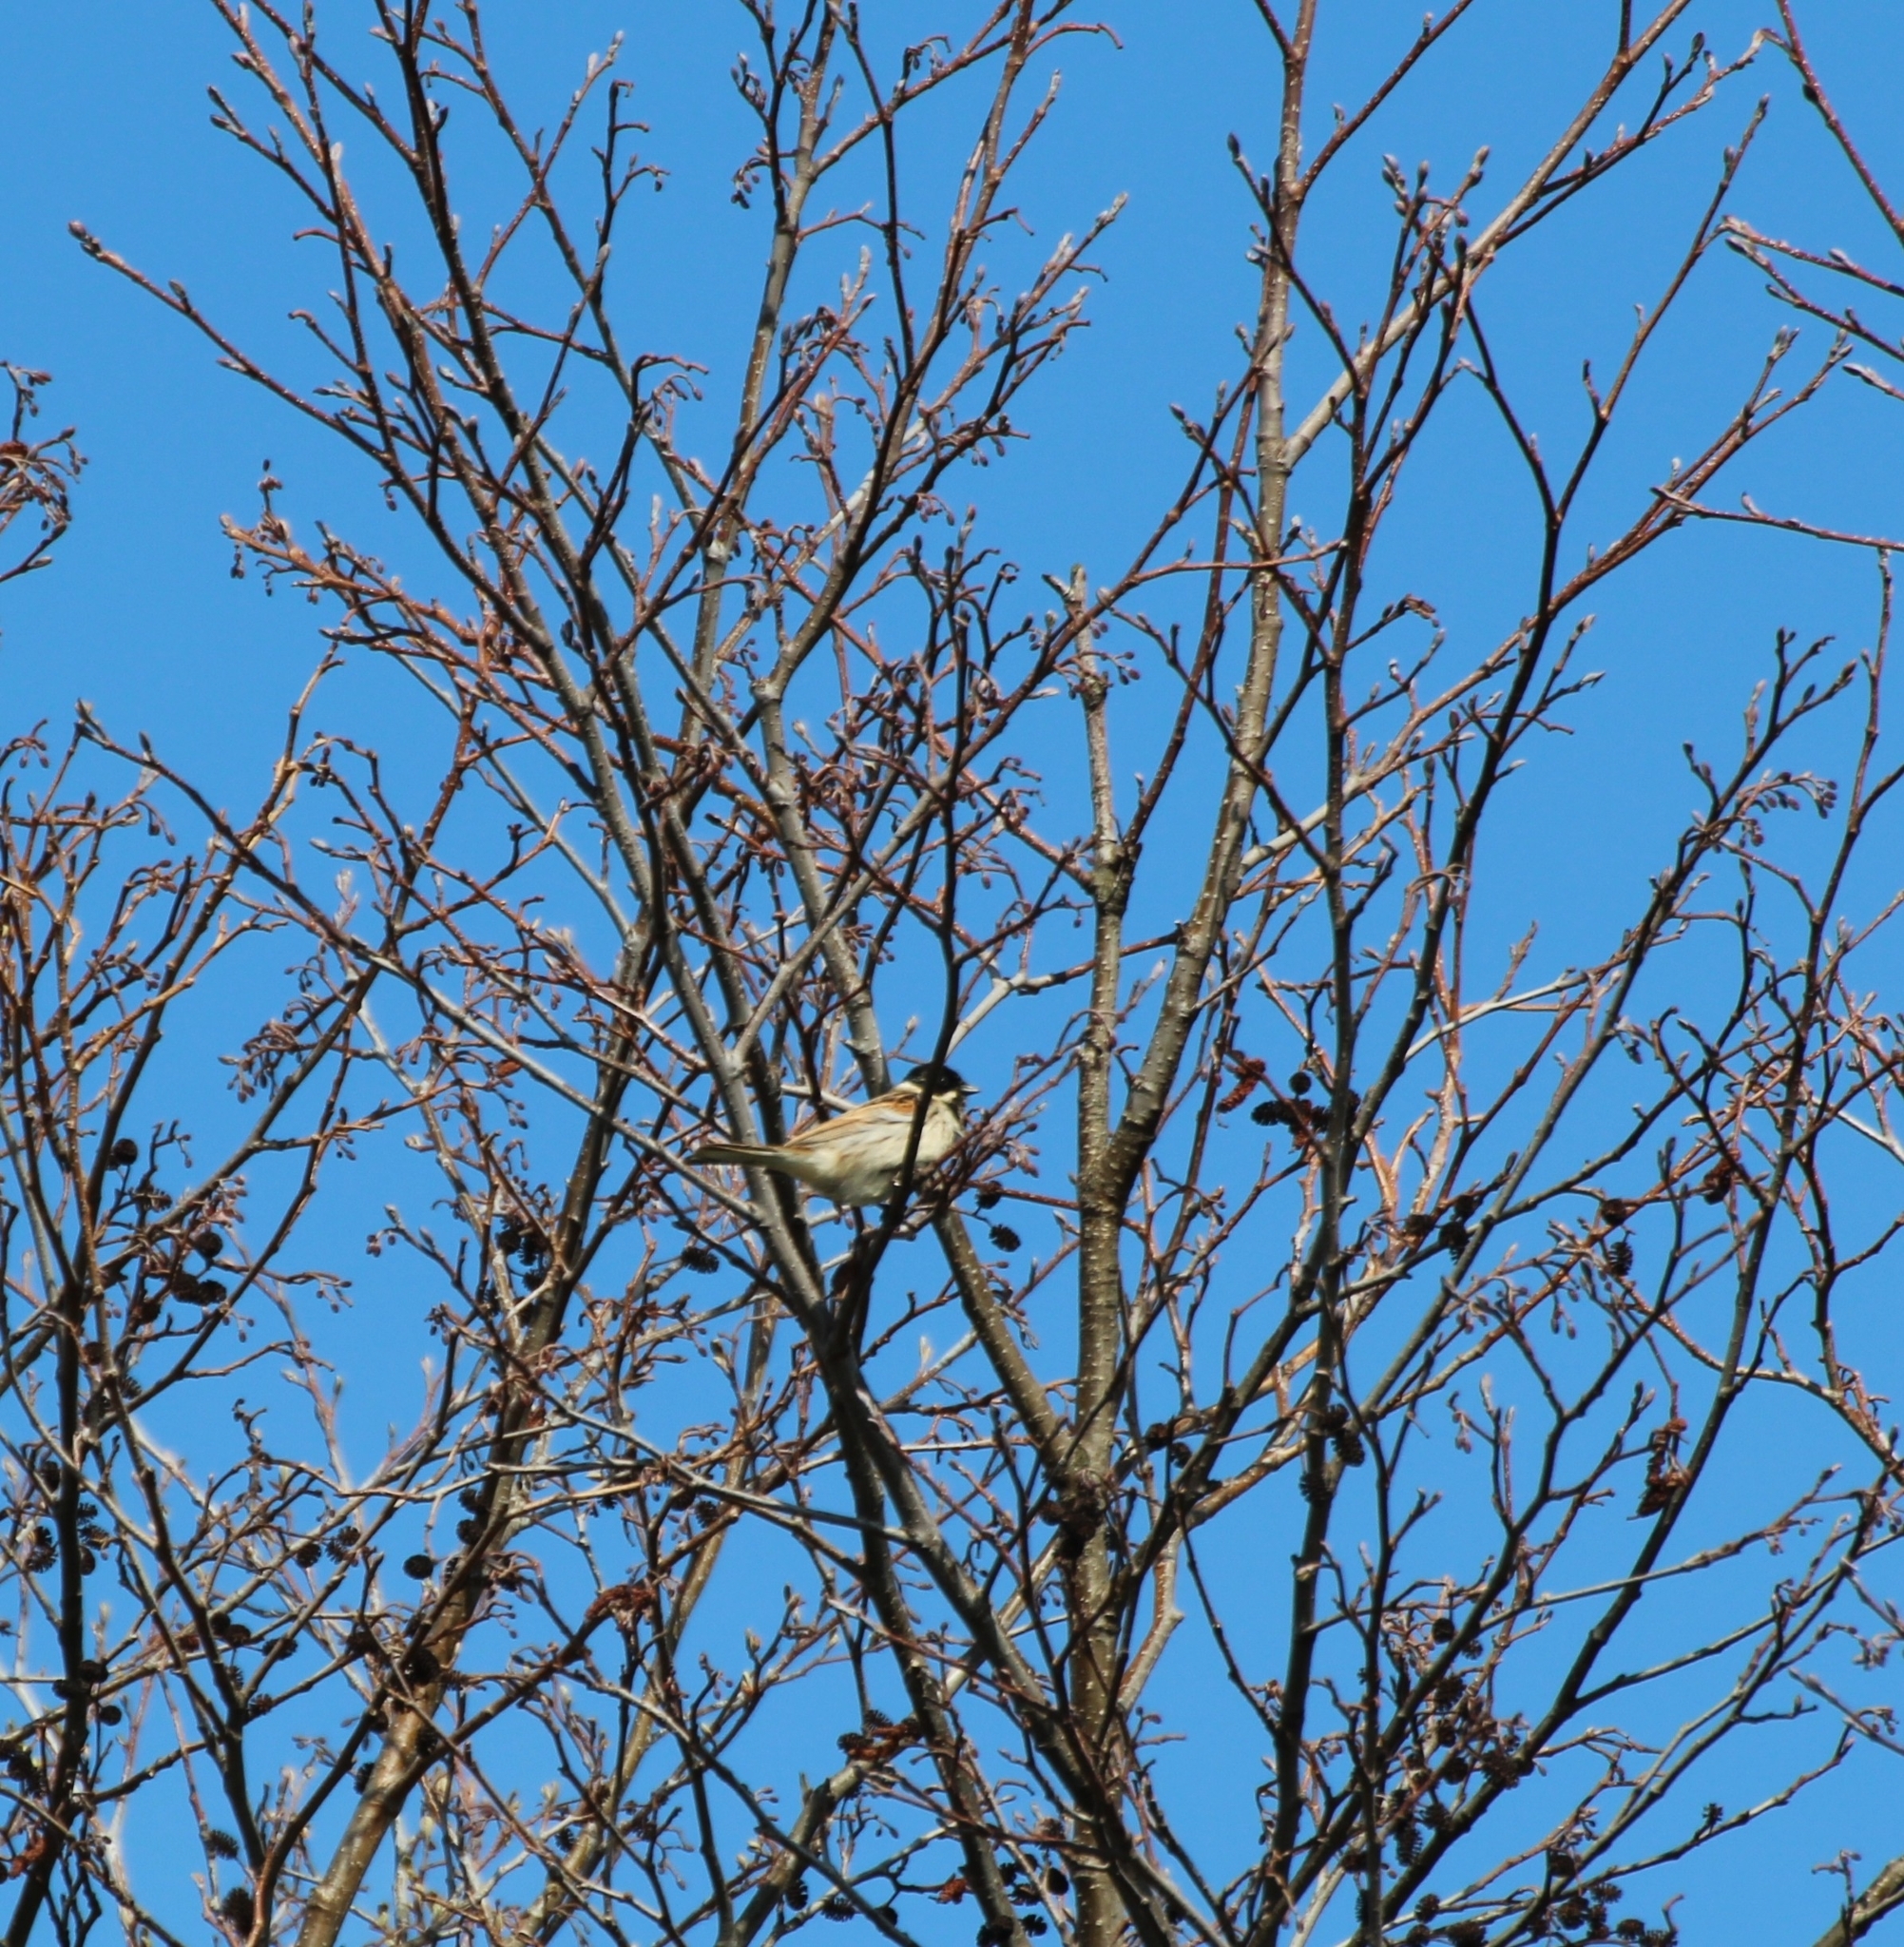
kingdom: Animalia
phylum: Chordata
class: Aves
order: Passeriformes
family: Emberizidae
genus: Emberiza
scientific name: Emberiza schoeniclus
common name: Reed bunting
